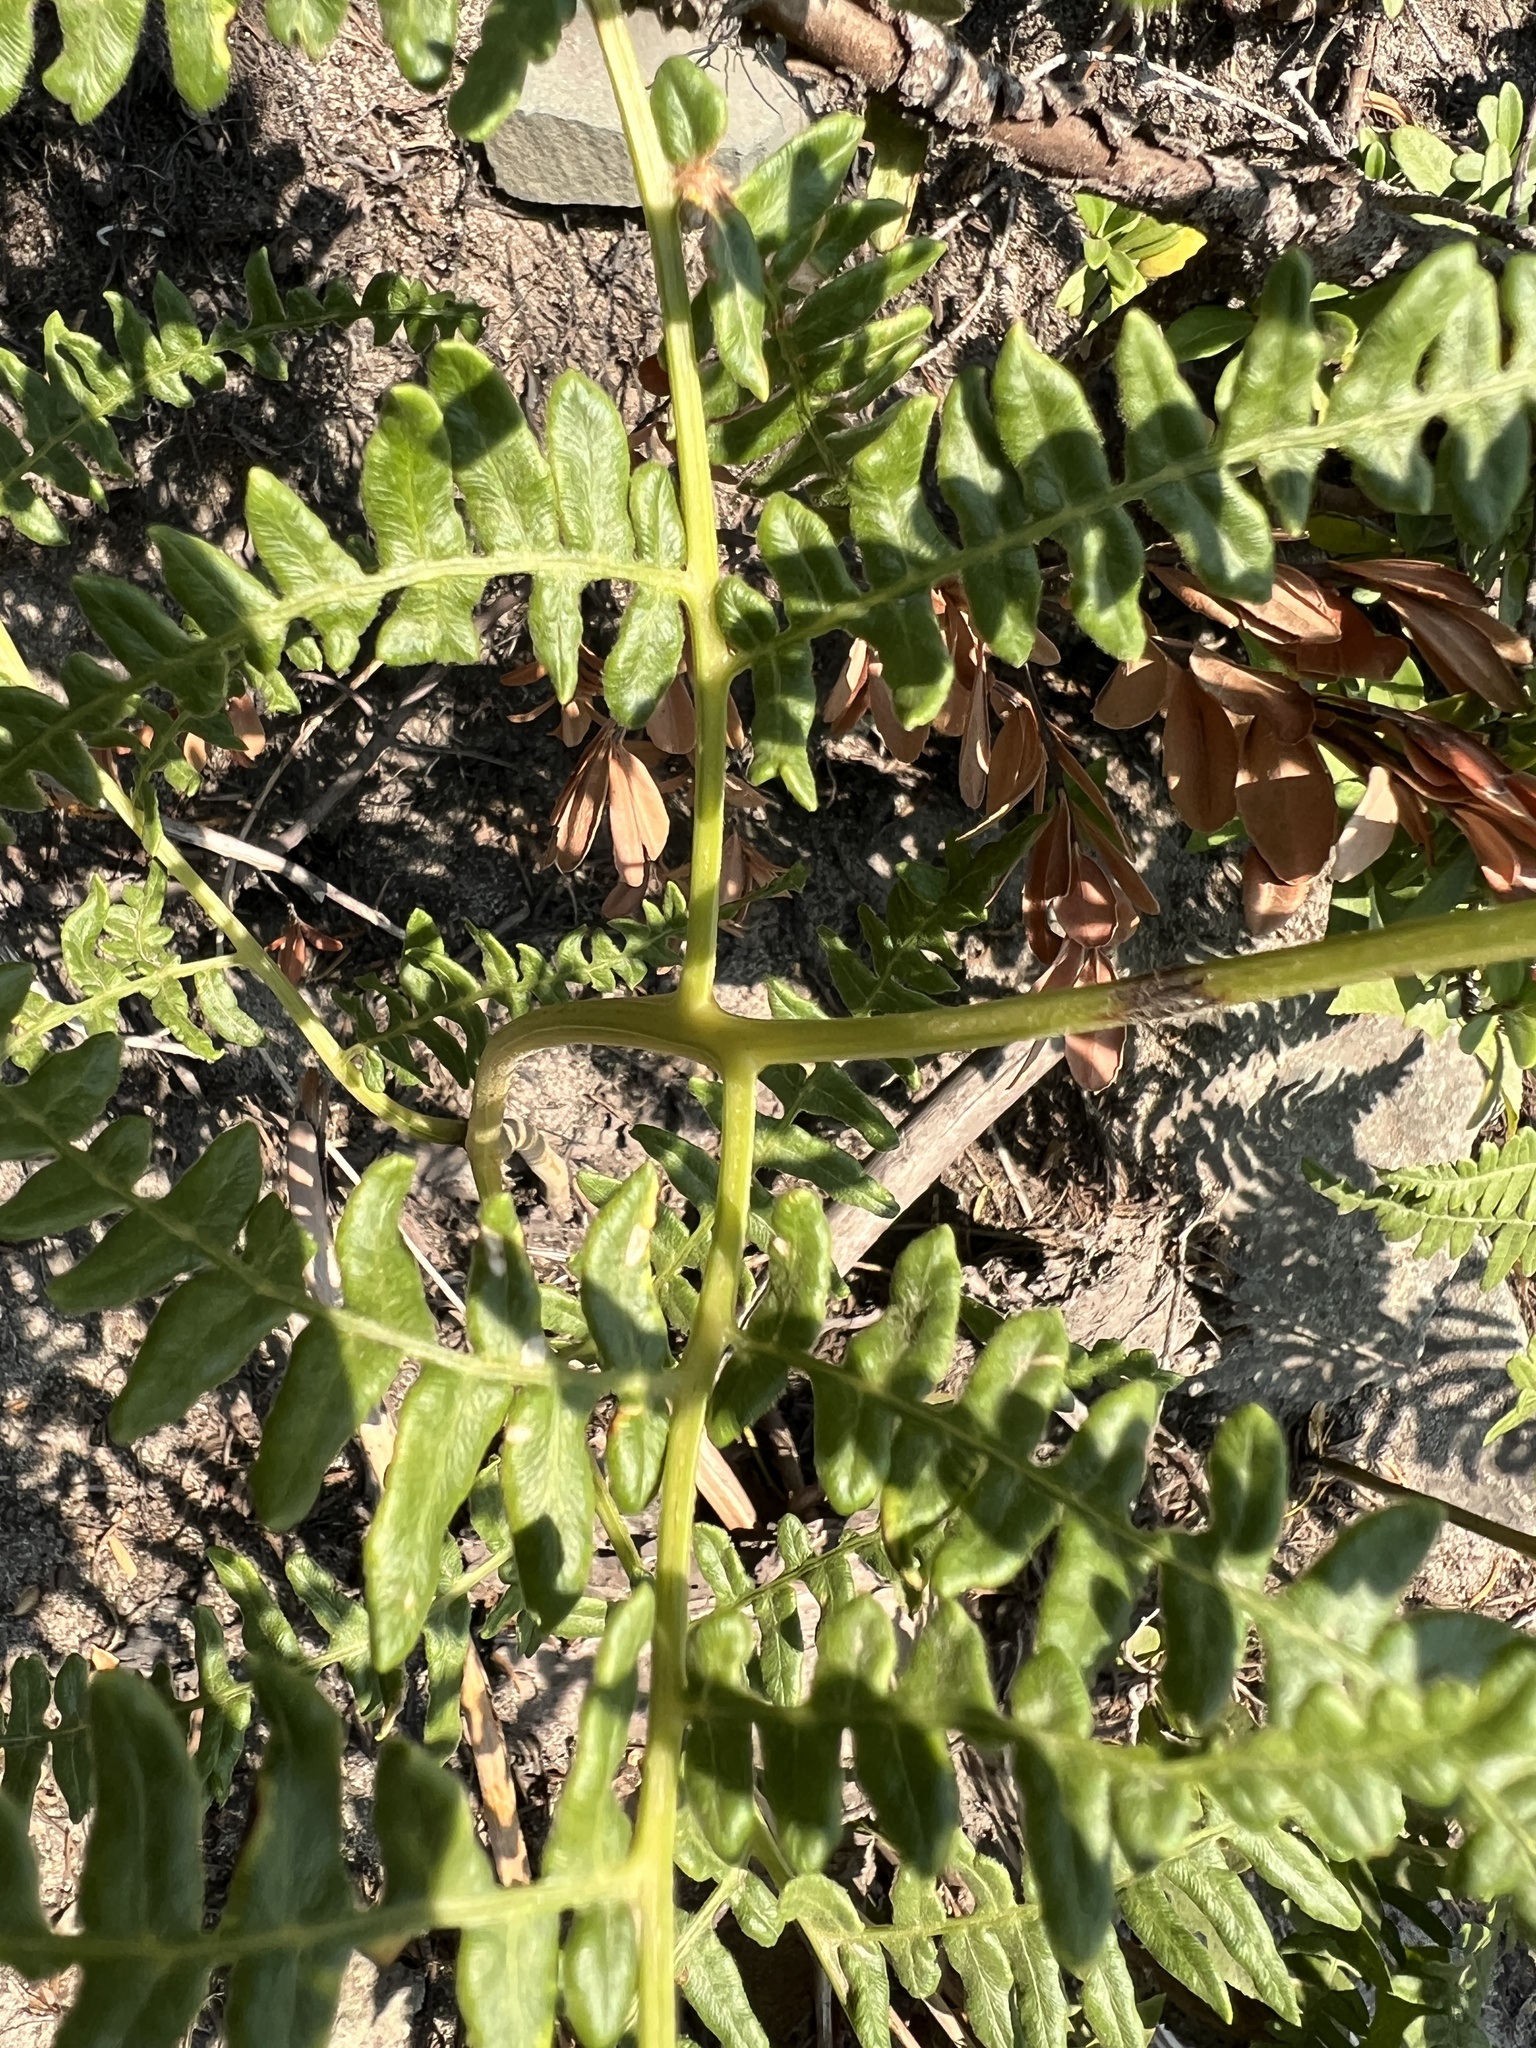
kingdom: Plantae
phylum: Tracheophyta
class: Polypodiopsida
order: Polypodiales
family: Dennstaedtiaceae
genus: Pteridium
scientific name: Pteridium aquilinum
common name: Bracken
